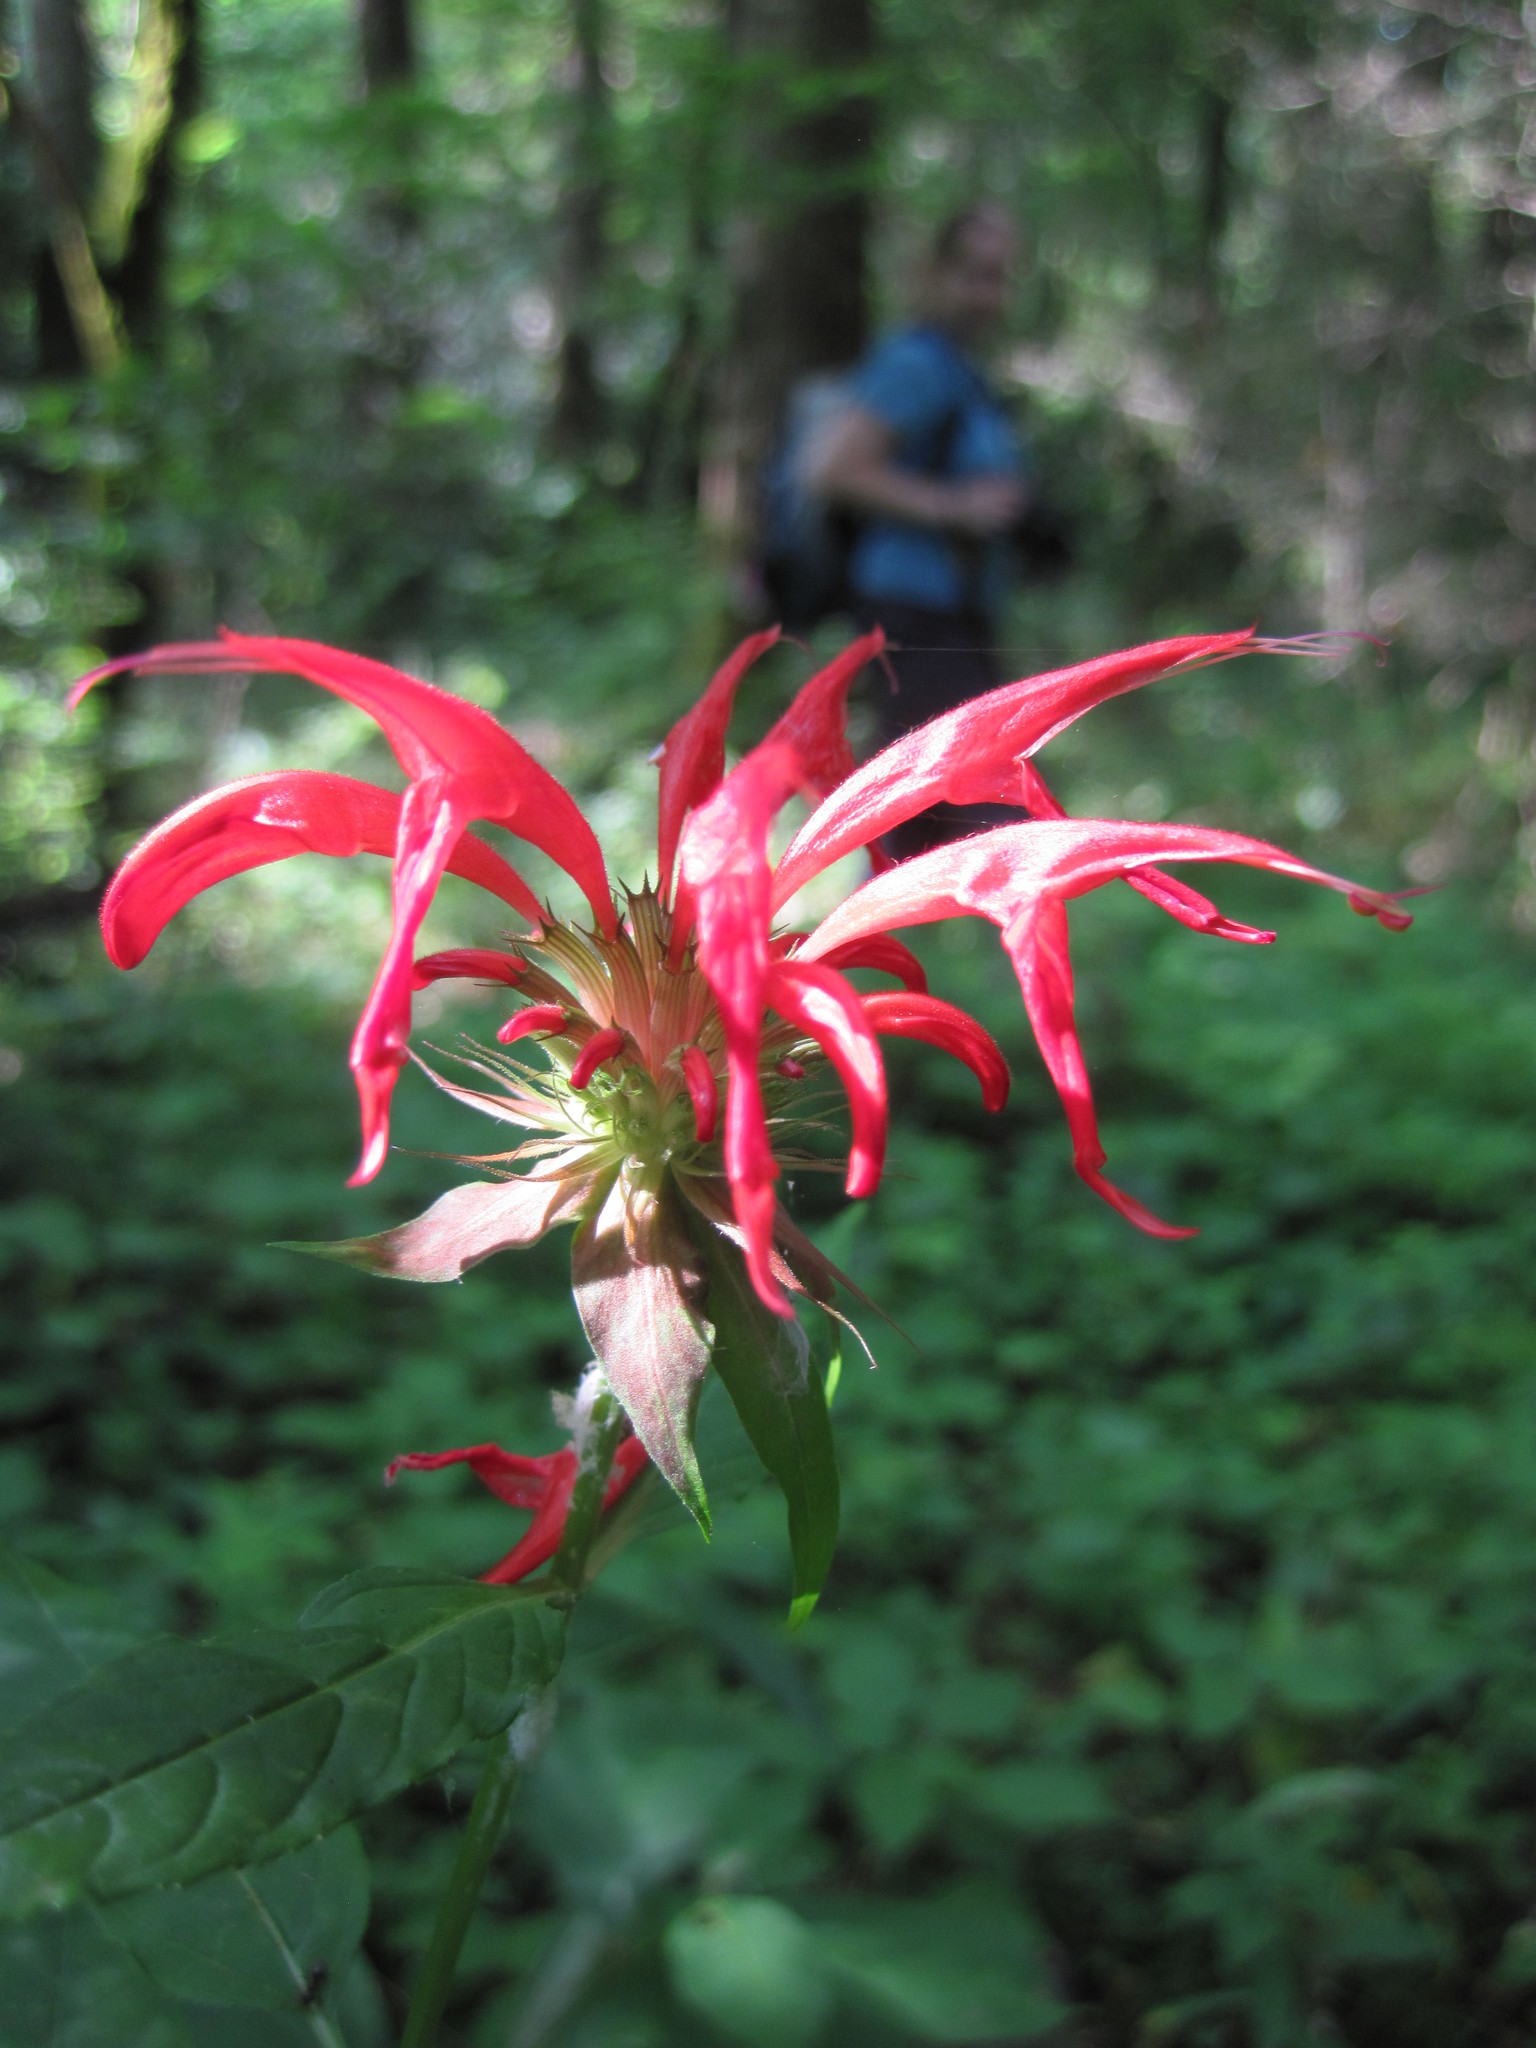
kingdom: Plantae
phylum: Tracheophyta
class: Magnoliopsida
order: Lamiales
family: Lamiaceae
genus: Monarda
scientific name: Monarda didyma
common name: Beebalm
